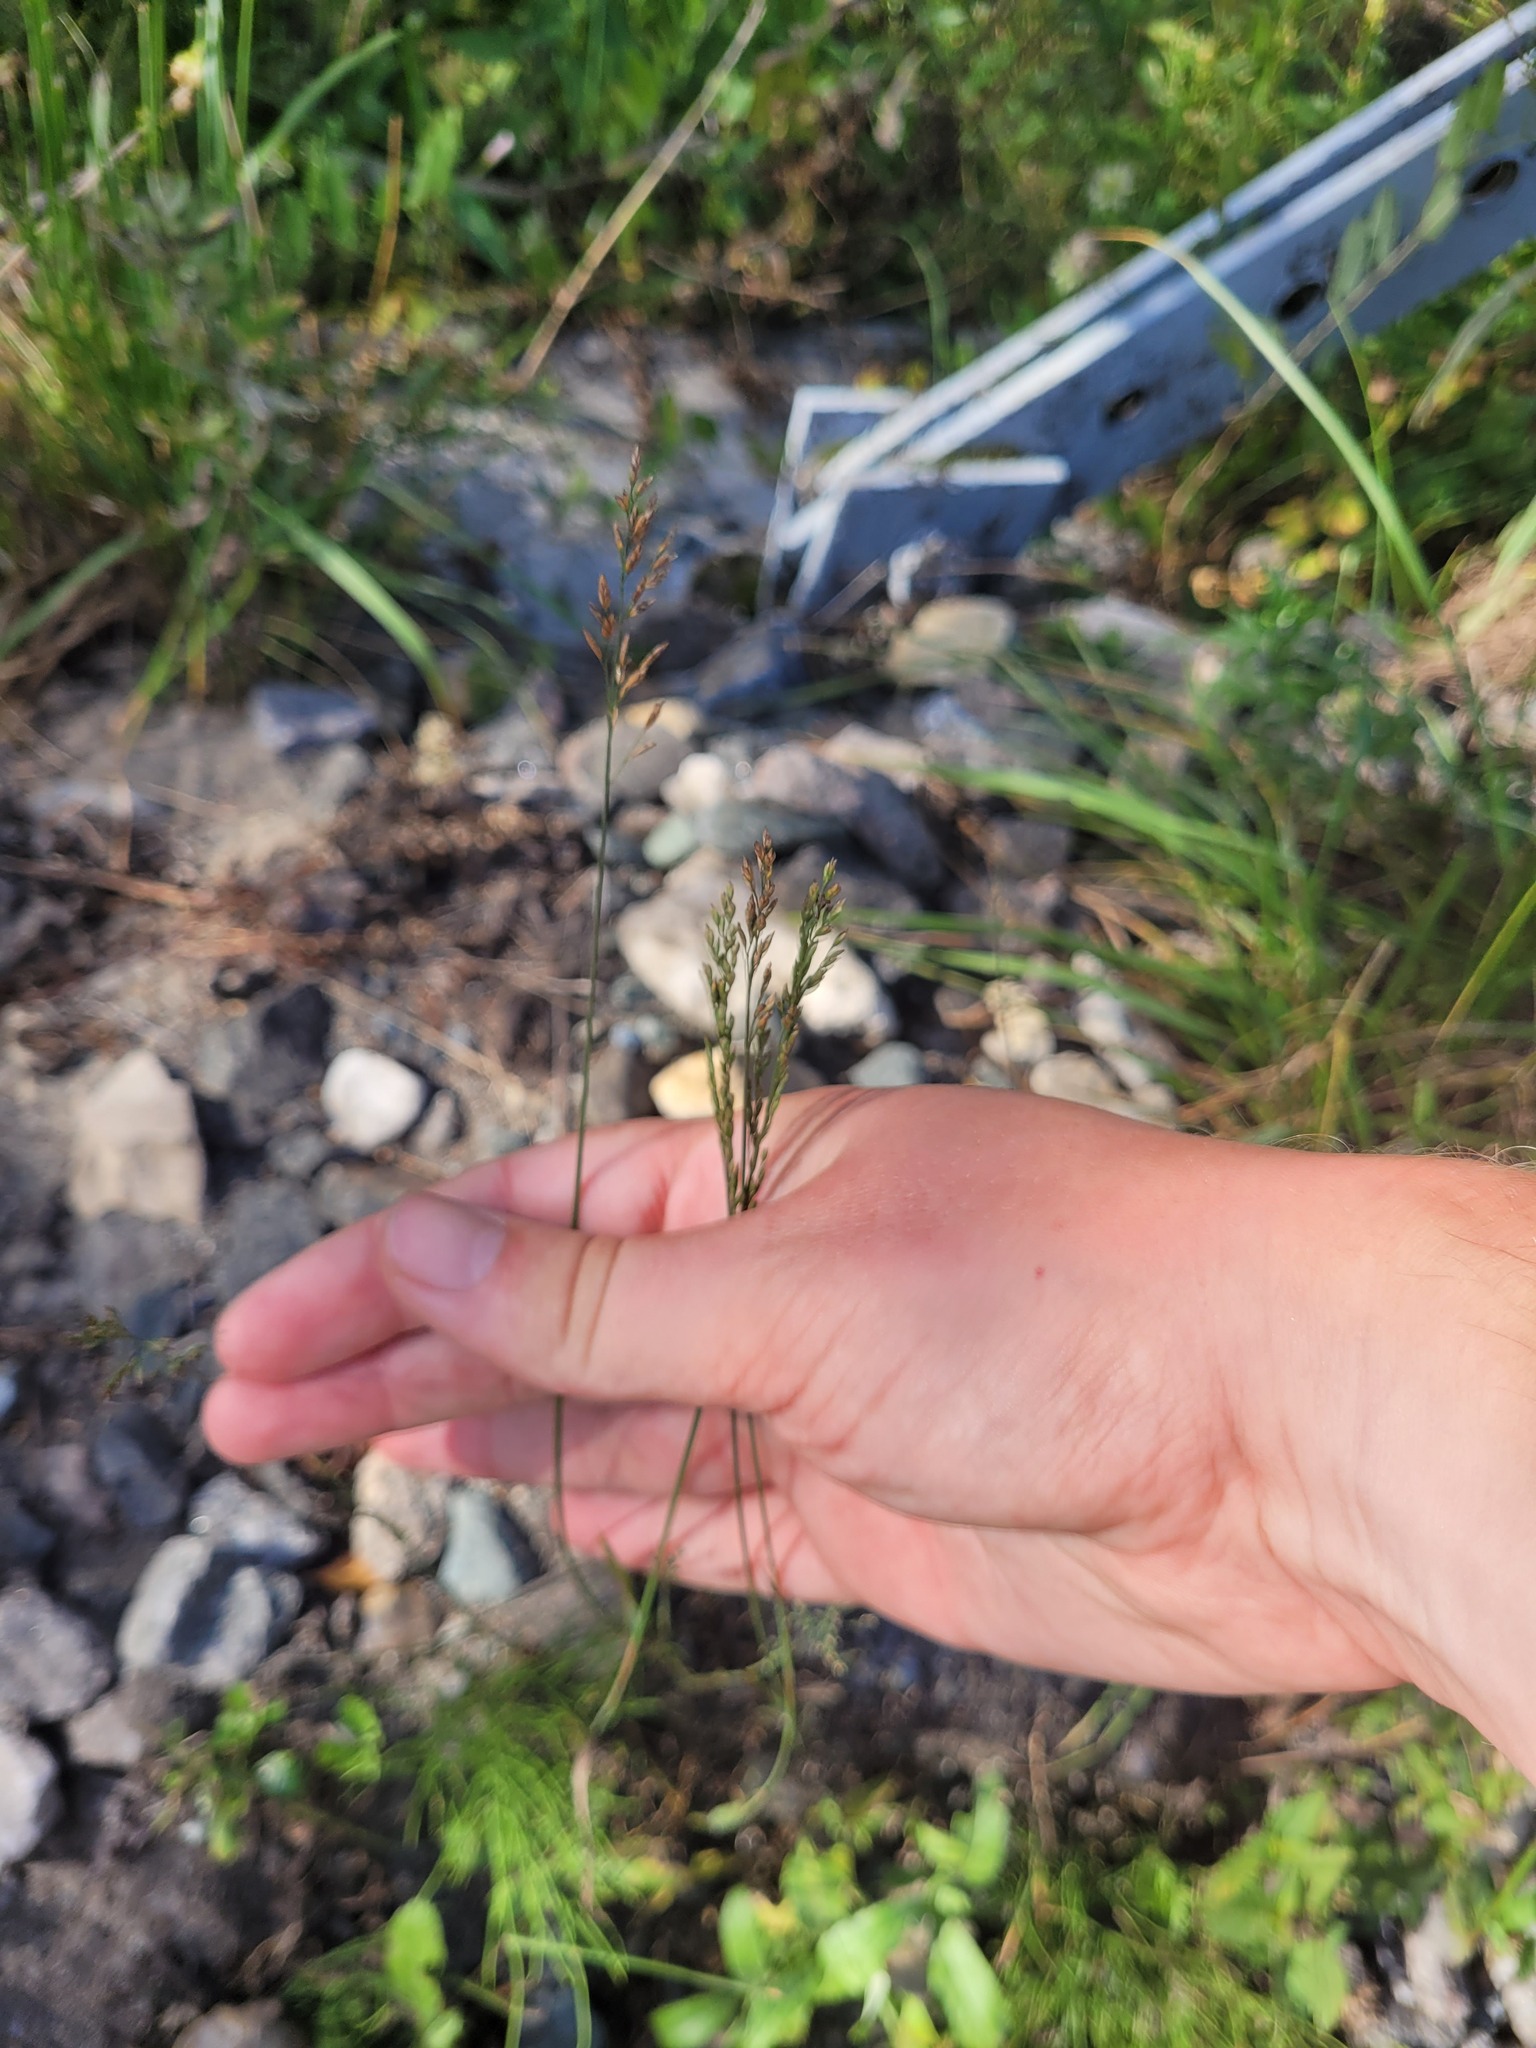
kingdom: Plantae
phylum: Tracheophyta
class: Liliopsida
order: Poales
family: Poaceae
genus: Poa
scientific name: Poa compressa
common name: Canada bluegrass
